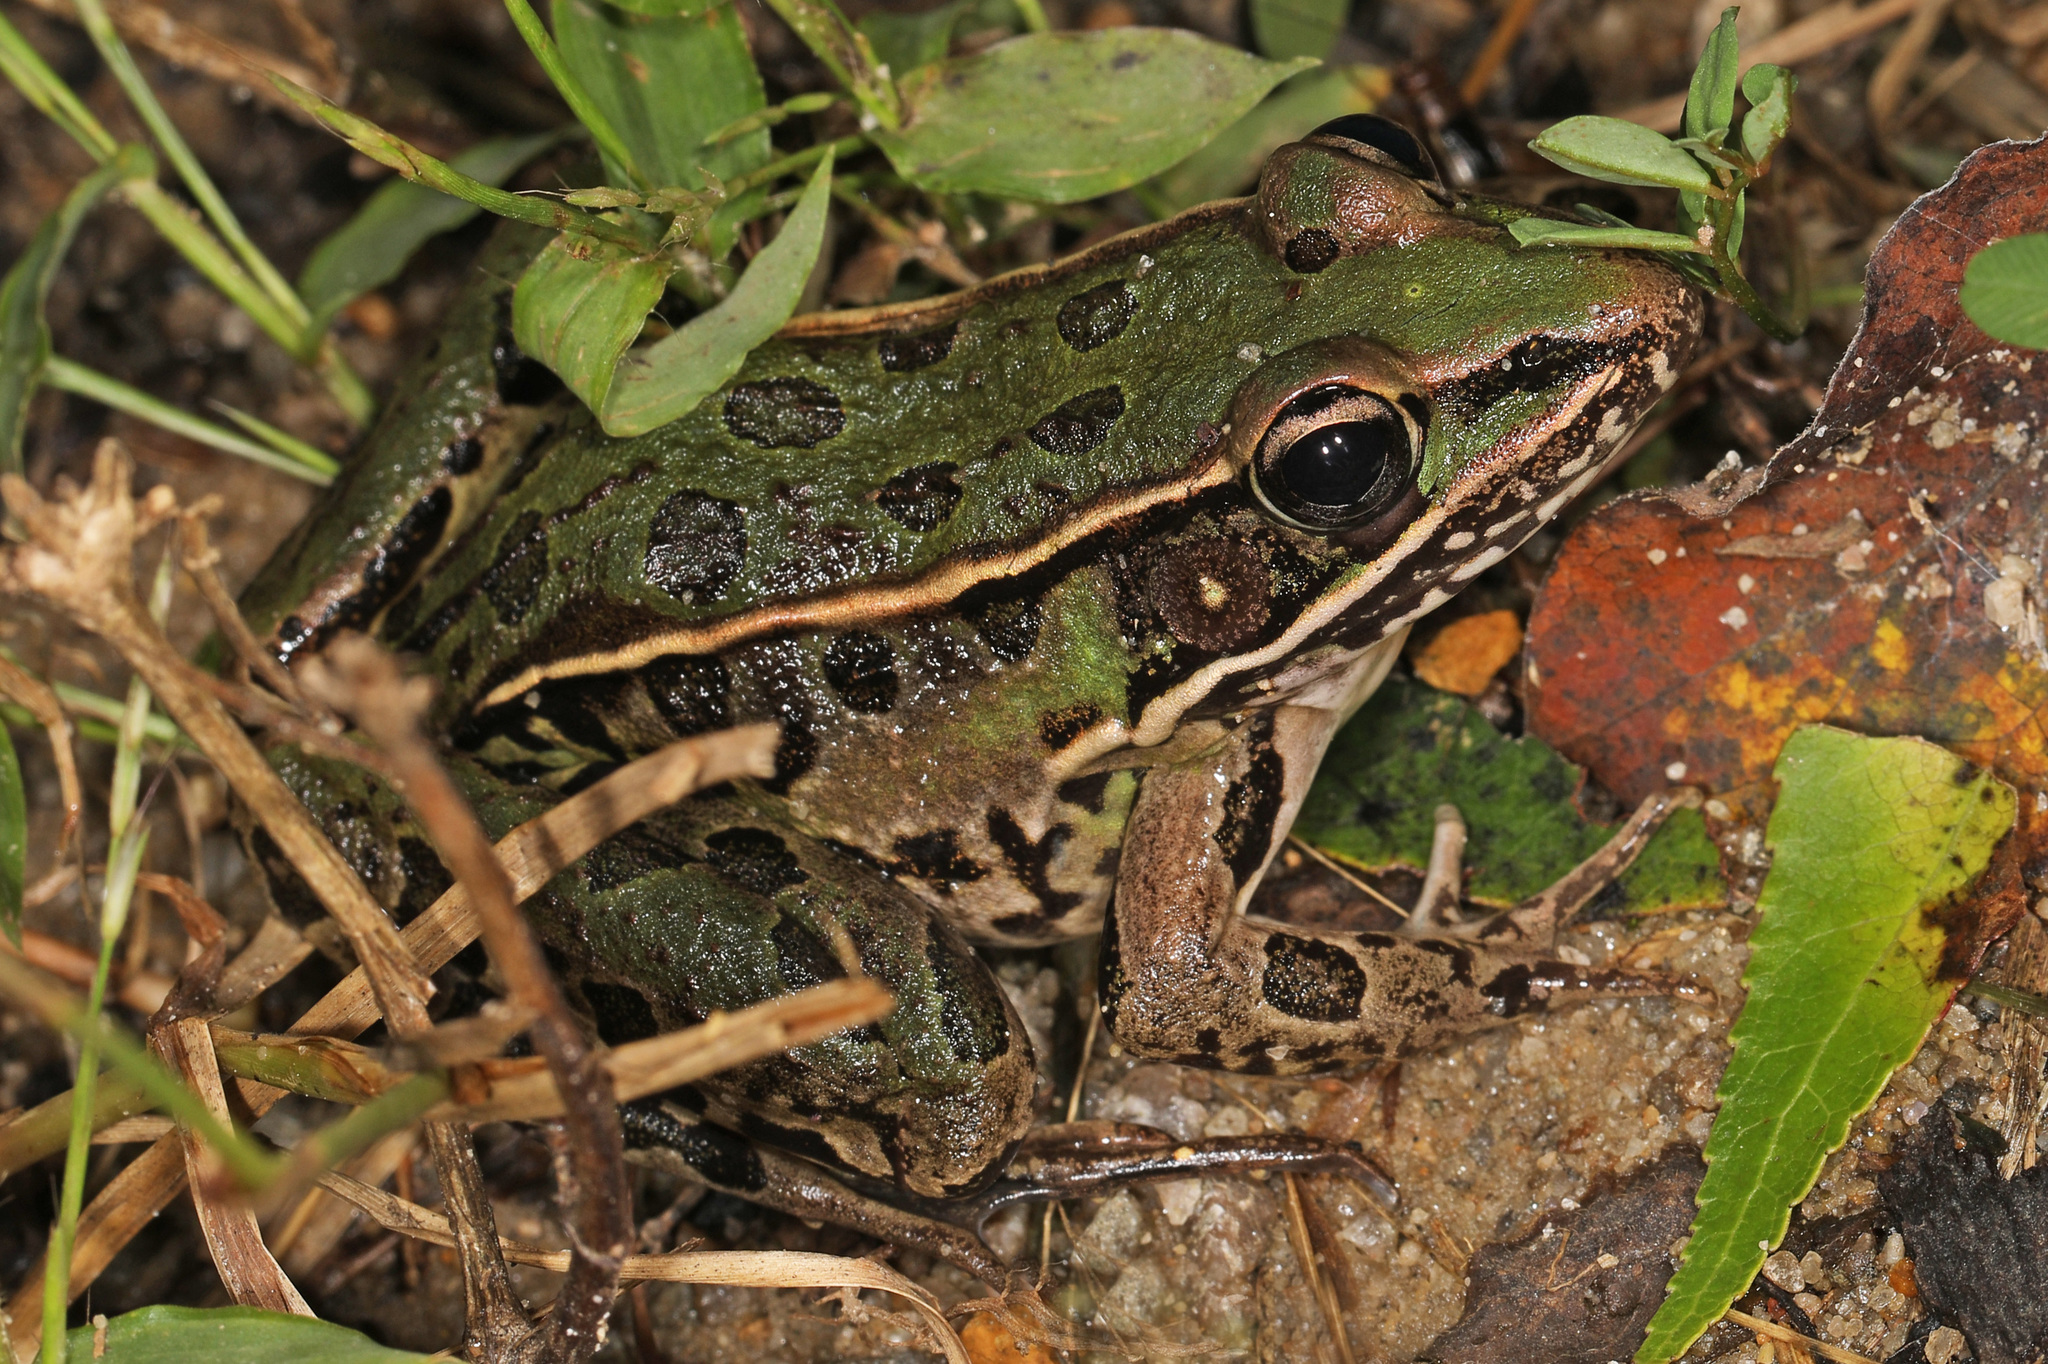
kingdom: Animalia
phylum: Chordata
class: Amphibia
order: Anura
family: Ranidae
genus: Lithobates
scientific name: Lithobates sphenocephalus
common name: Southern leopard frog
